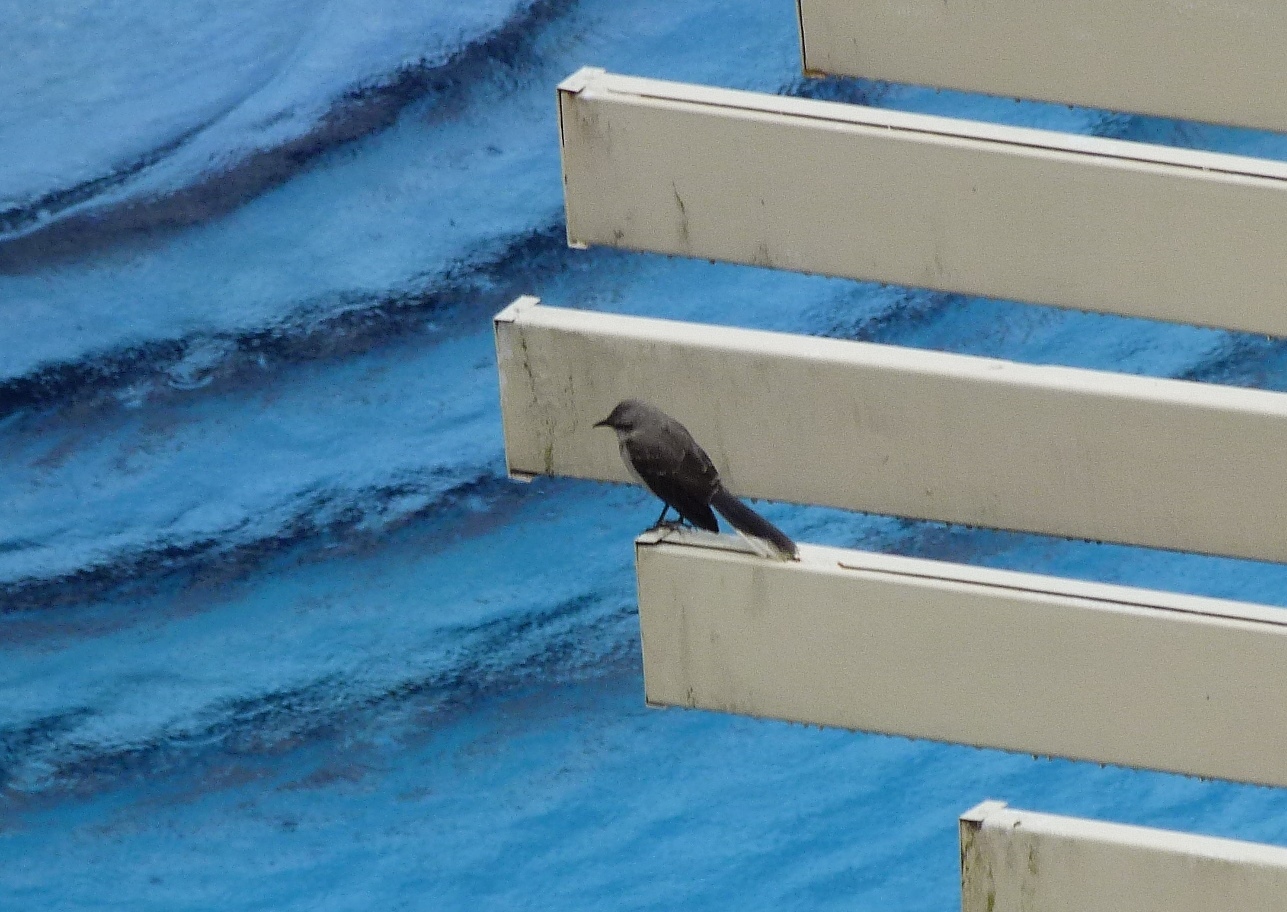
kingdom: Animalia
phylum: Chordata
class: Aves
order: Passeriformes
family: Mimidae
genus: Mimus
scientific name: Mimus gilvus
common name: Tropical mockingbird
